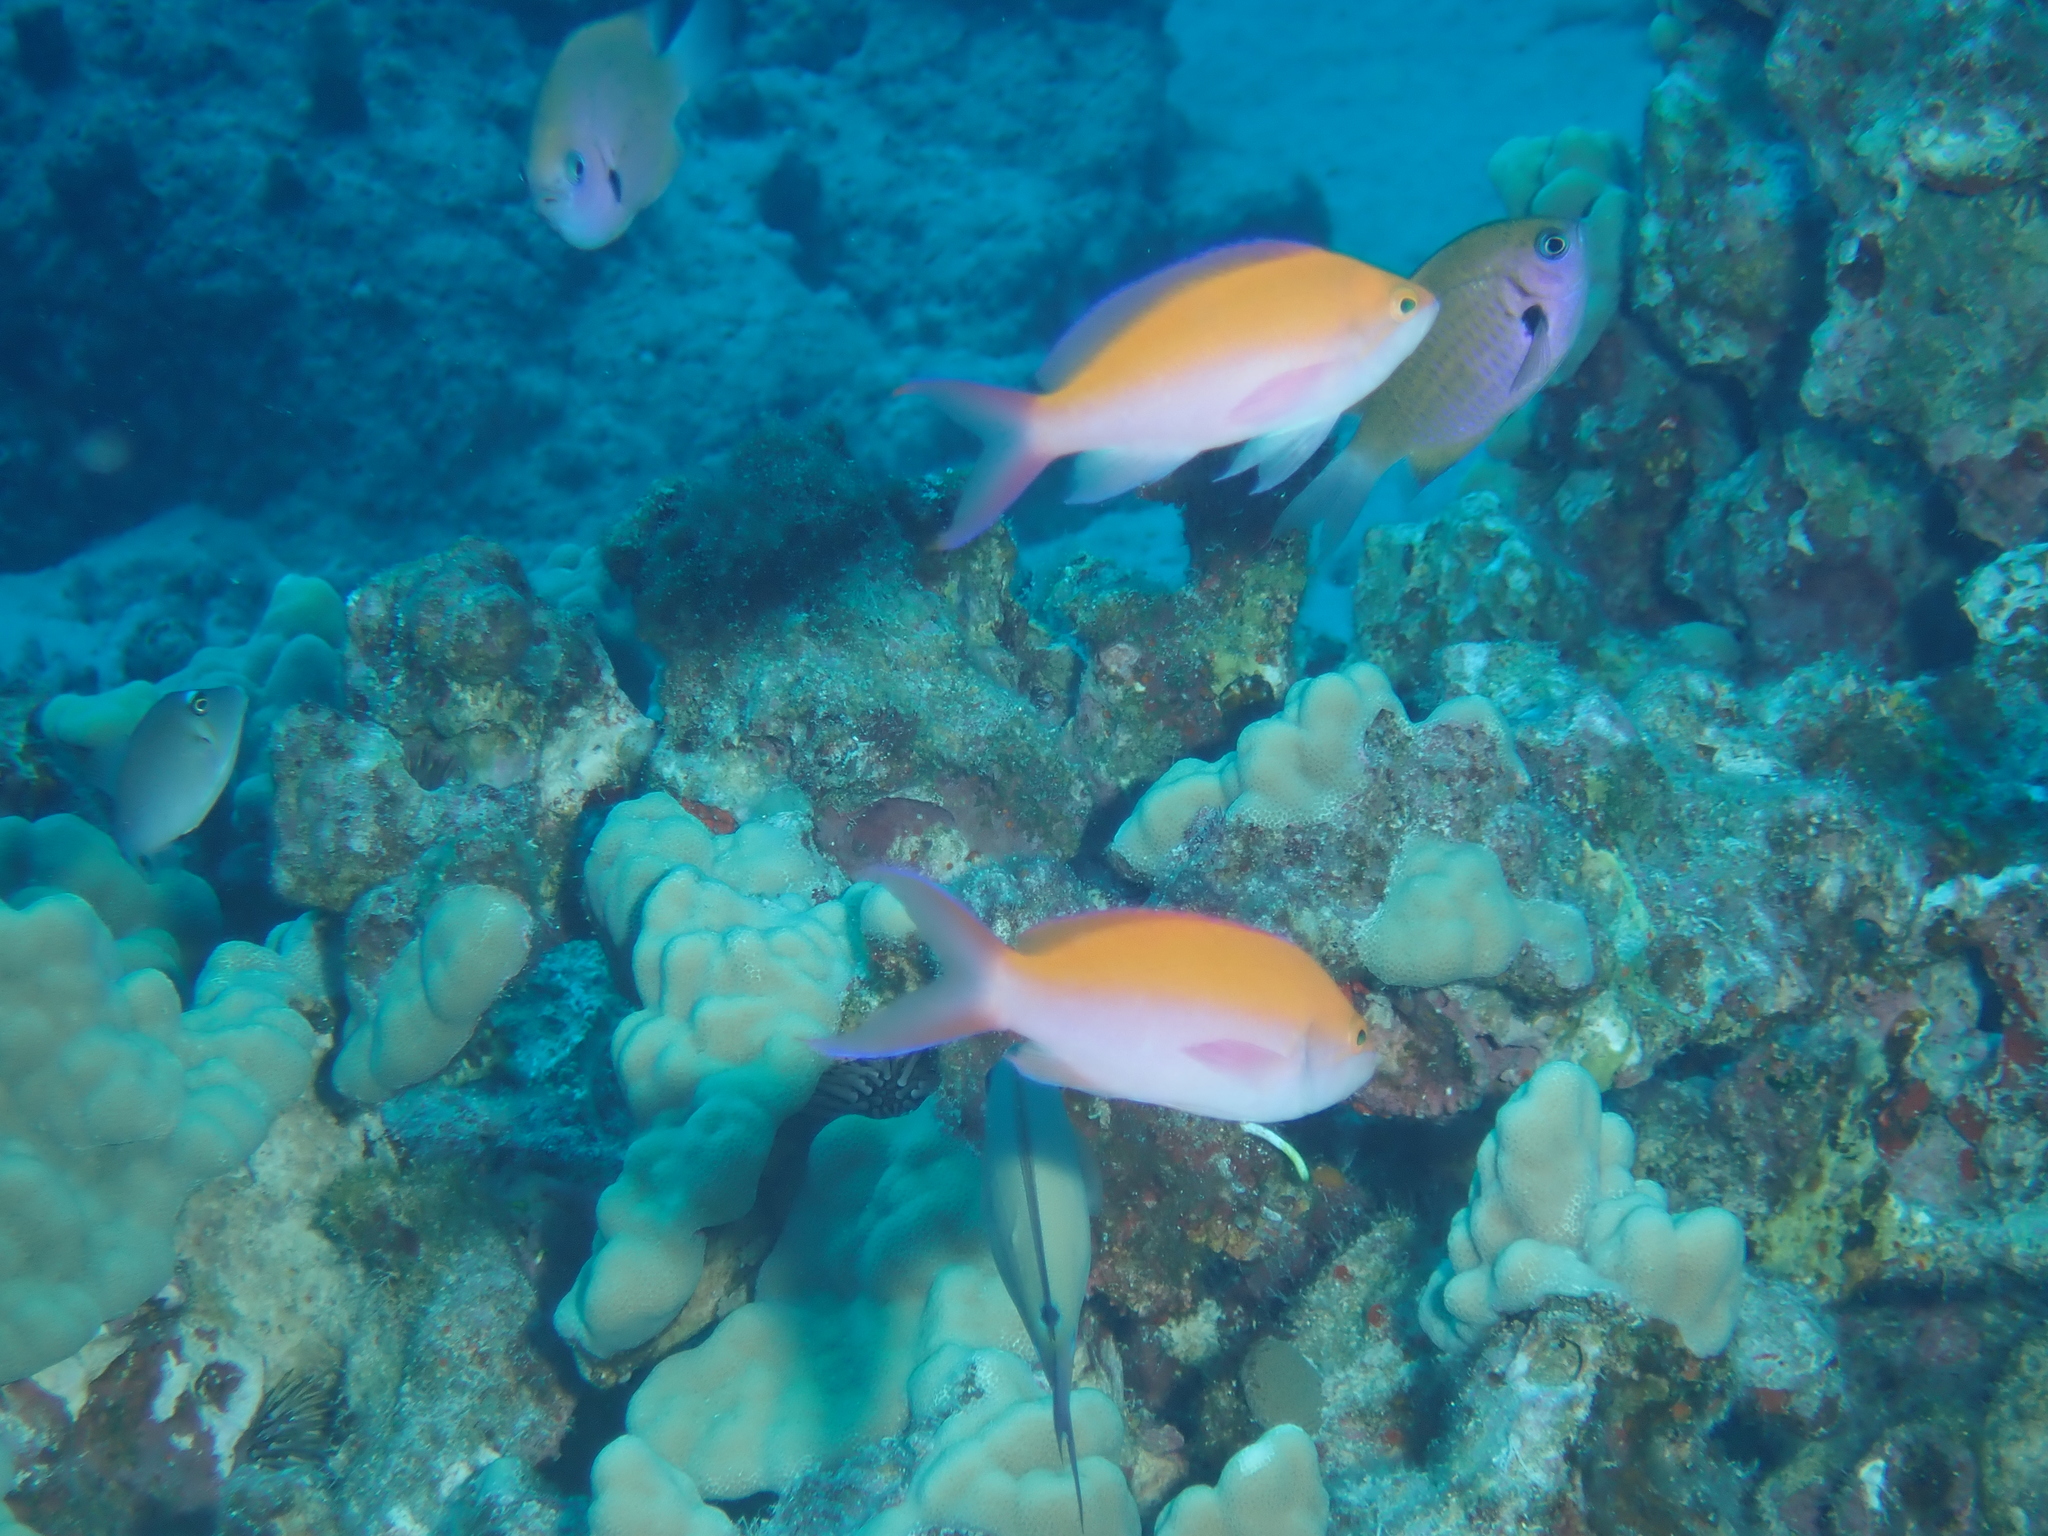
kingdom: Animalia
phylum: Chordata
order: Perciformes
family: Serranidae
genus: Nemanthias
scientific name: Nemanthias
